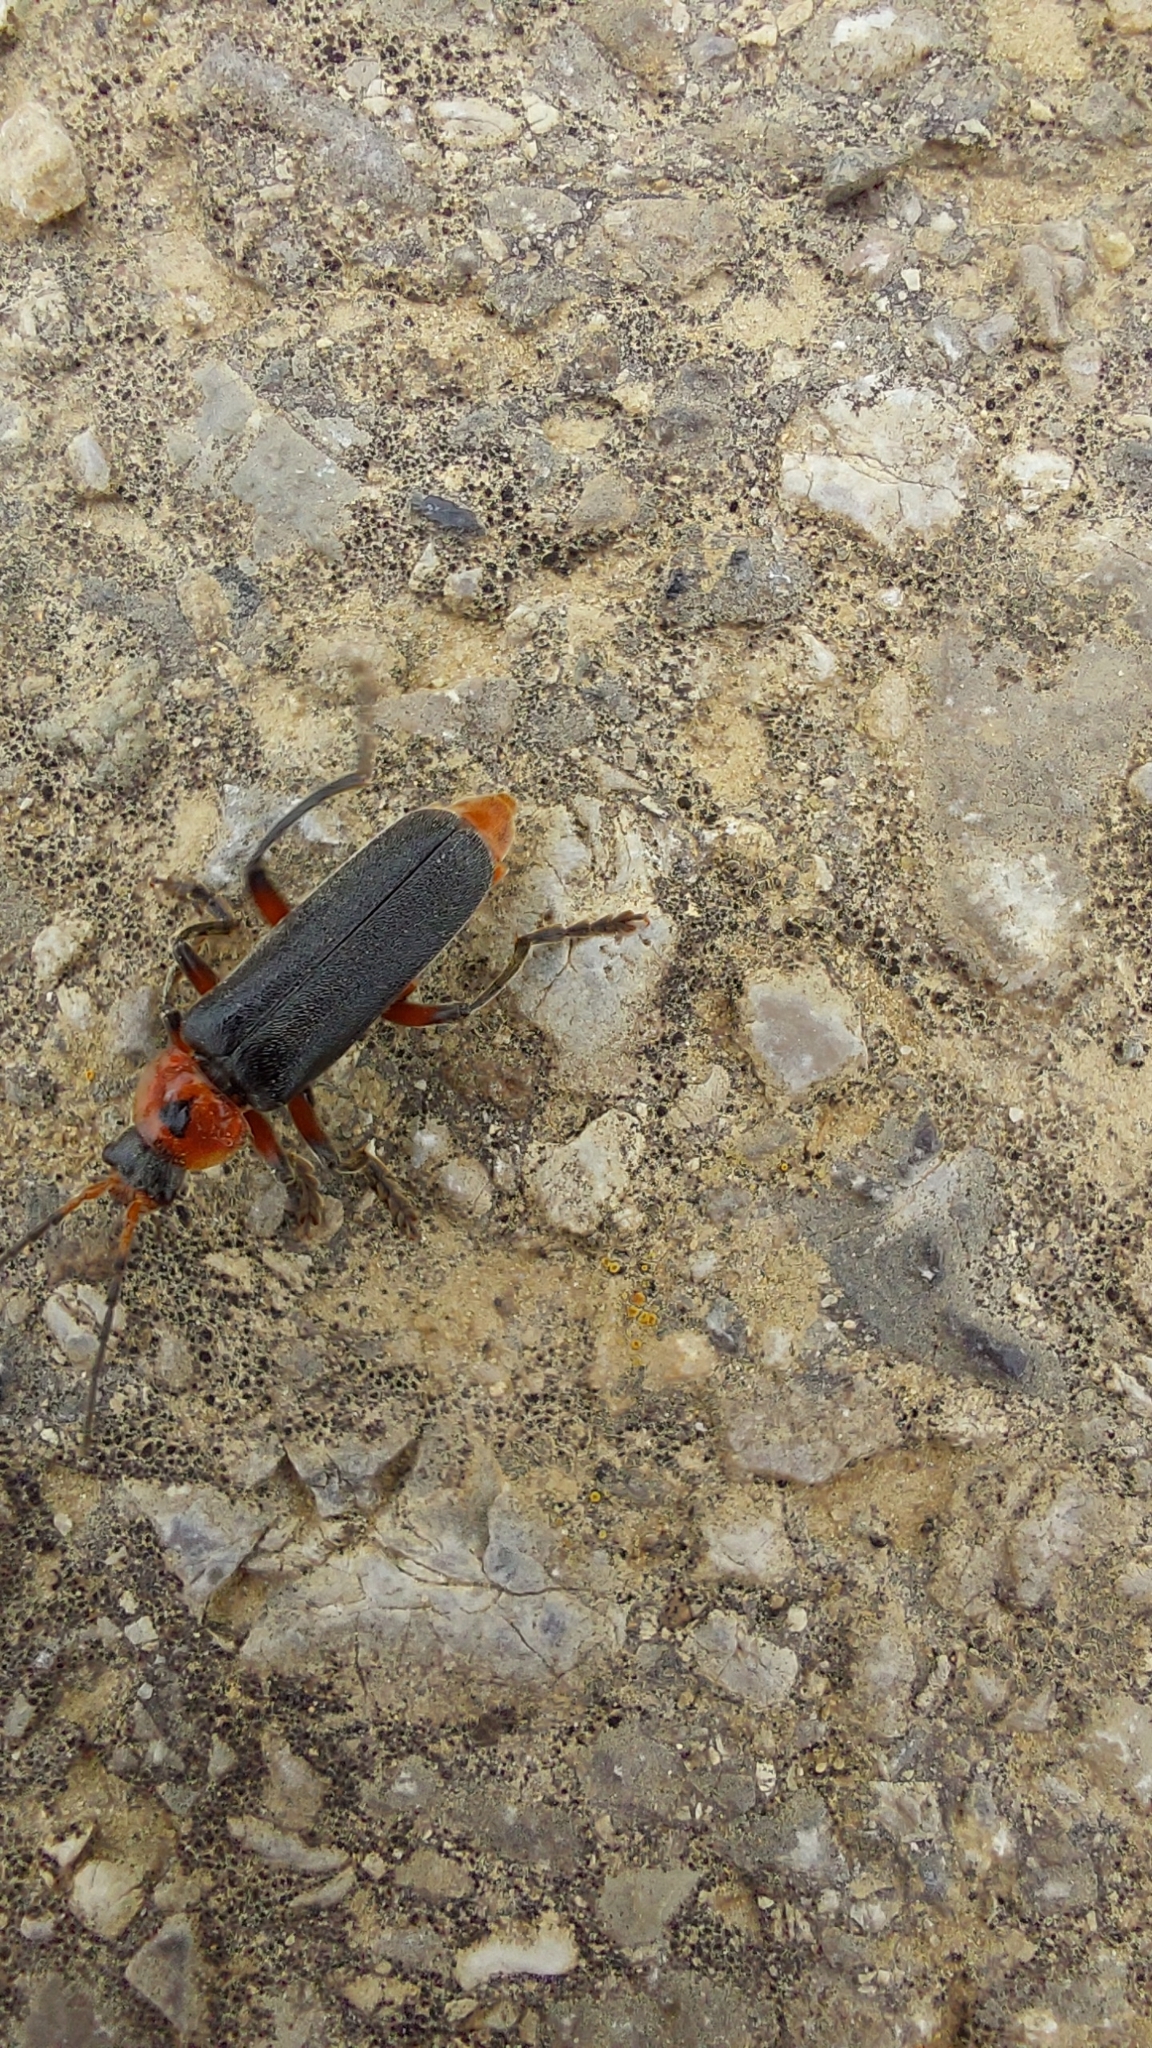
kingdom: Animalia
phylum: Arthropoda
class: Insecta
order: Coleoptera
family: Cantharidae
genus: Cantharis
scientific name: Cantharis rustica
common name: Soldier beetle
